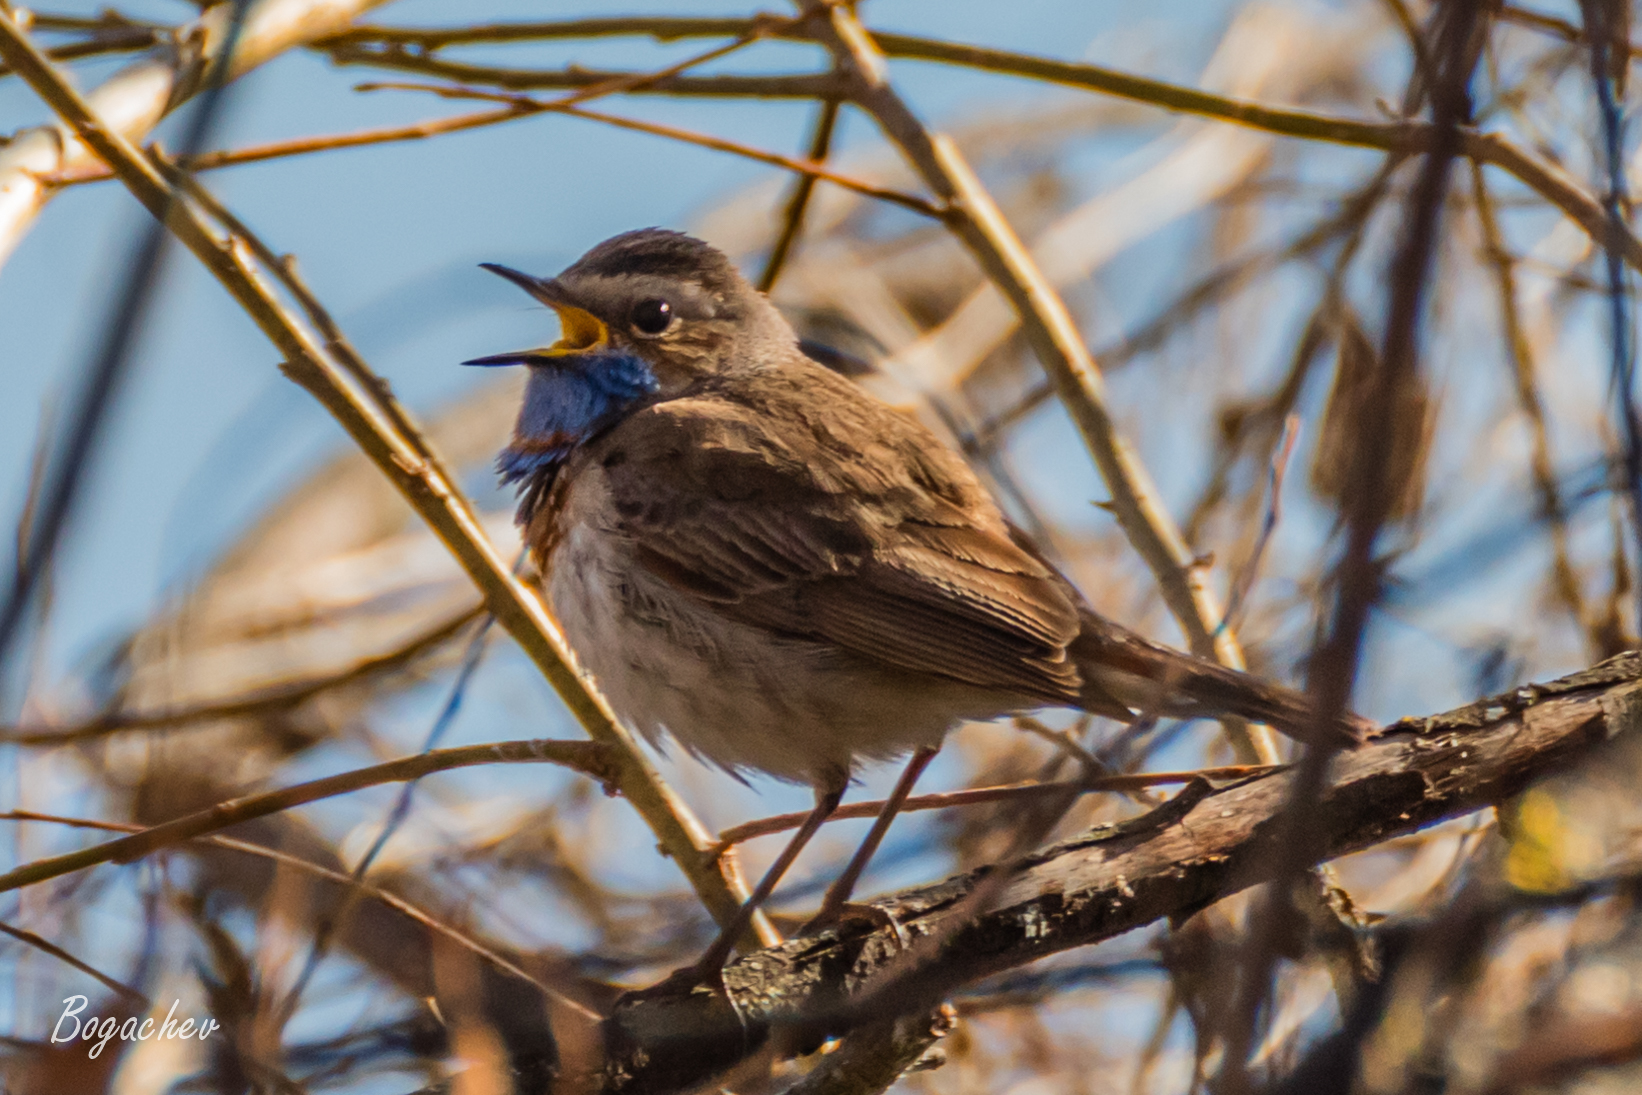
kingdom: Animalia
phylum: Chordata
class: Aves
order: Passeriformes
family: Muscicapidae
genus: Luscinia
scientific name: Luscinia svecica
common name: Bluethroat
